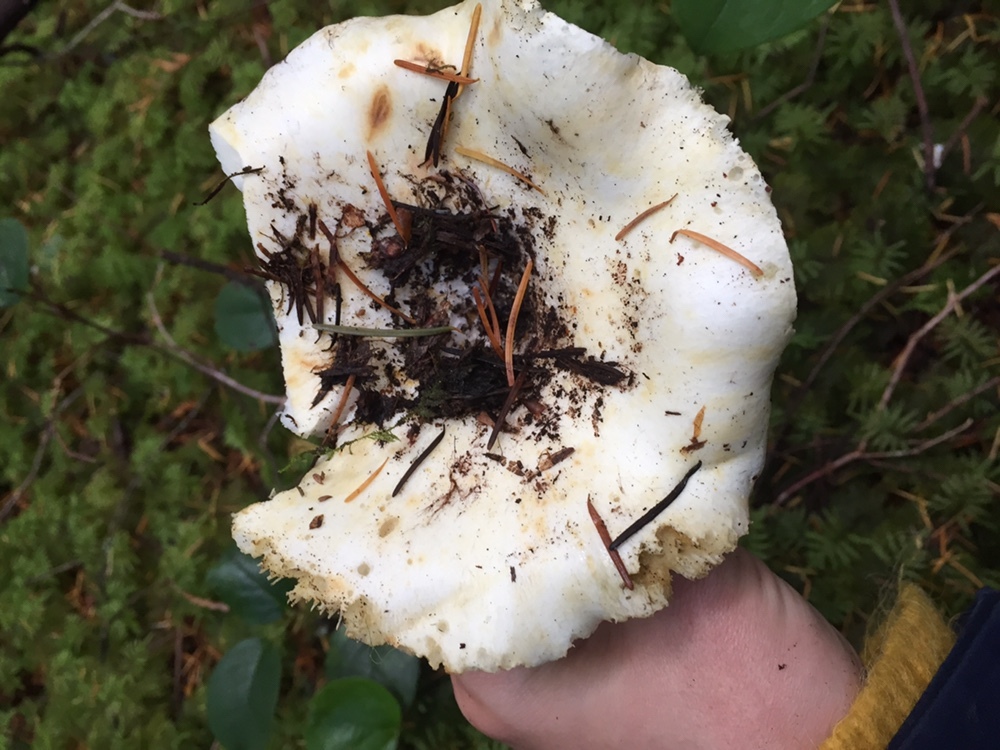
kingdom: Fungi
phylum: Basidiomycota
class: Agaricomycetes
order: Russulales
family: Russulaceae
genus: Russula
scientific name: Russula brevipes
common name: Short-stemmed russula
